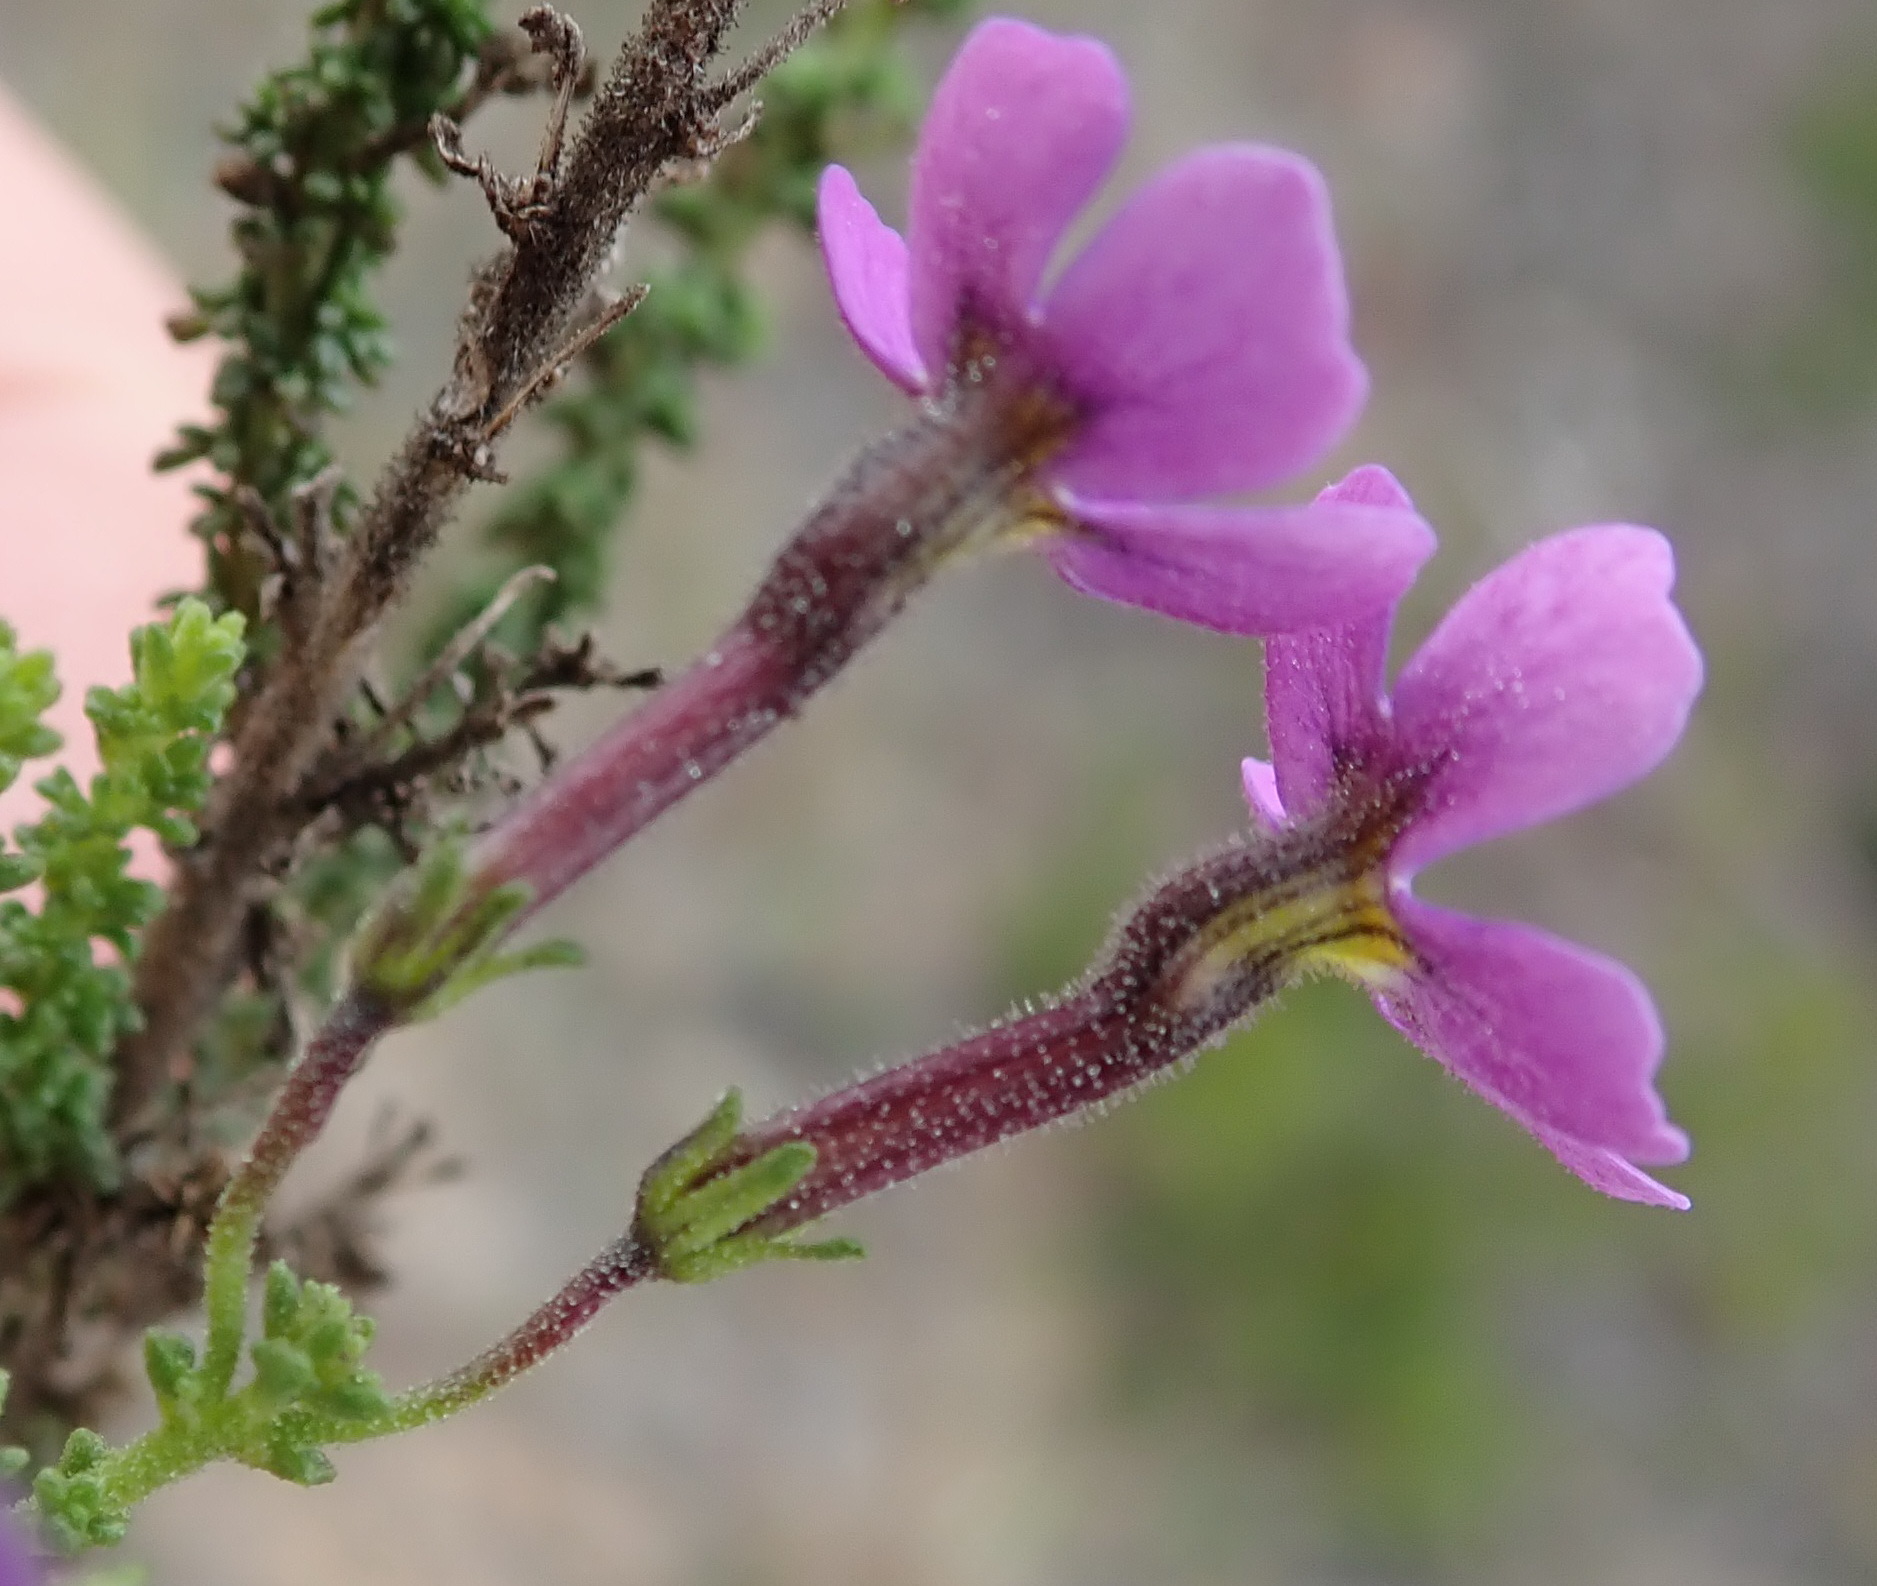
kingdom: Plantae
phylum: Tracheophyta
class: Magnoliopsida
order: Lamiales
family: Scrophulariaceae
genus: Jamesbrittenia
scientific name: Jamesbrittenia calciphila
